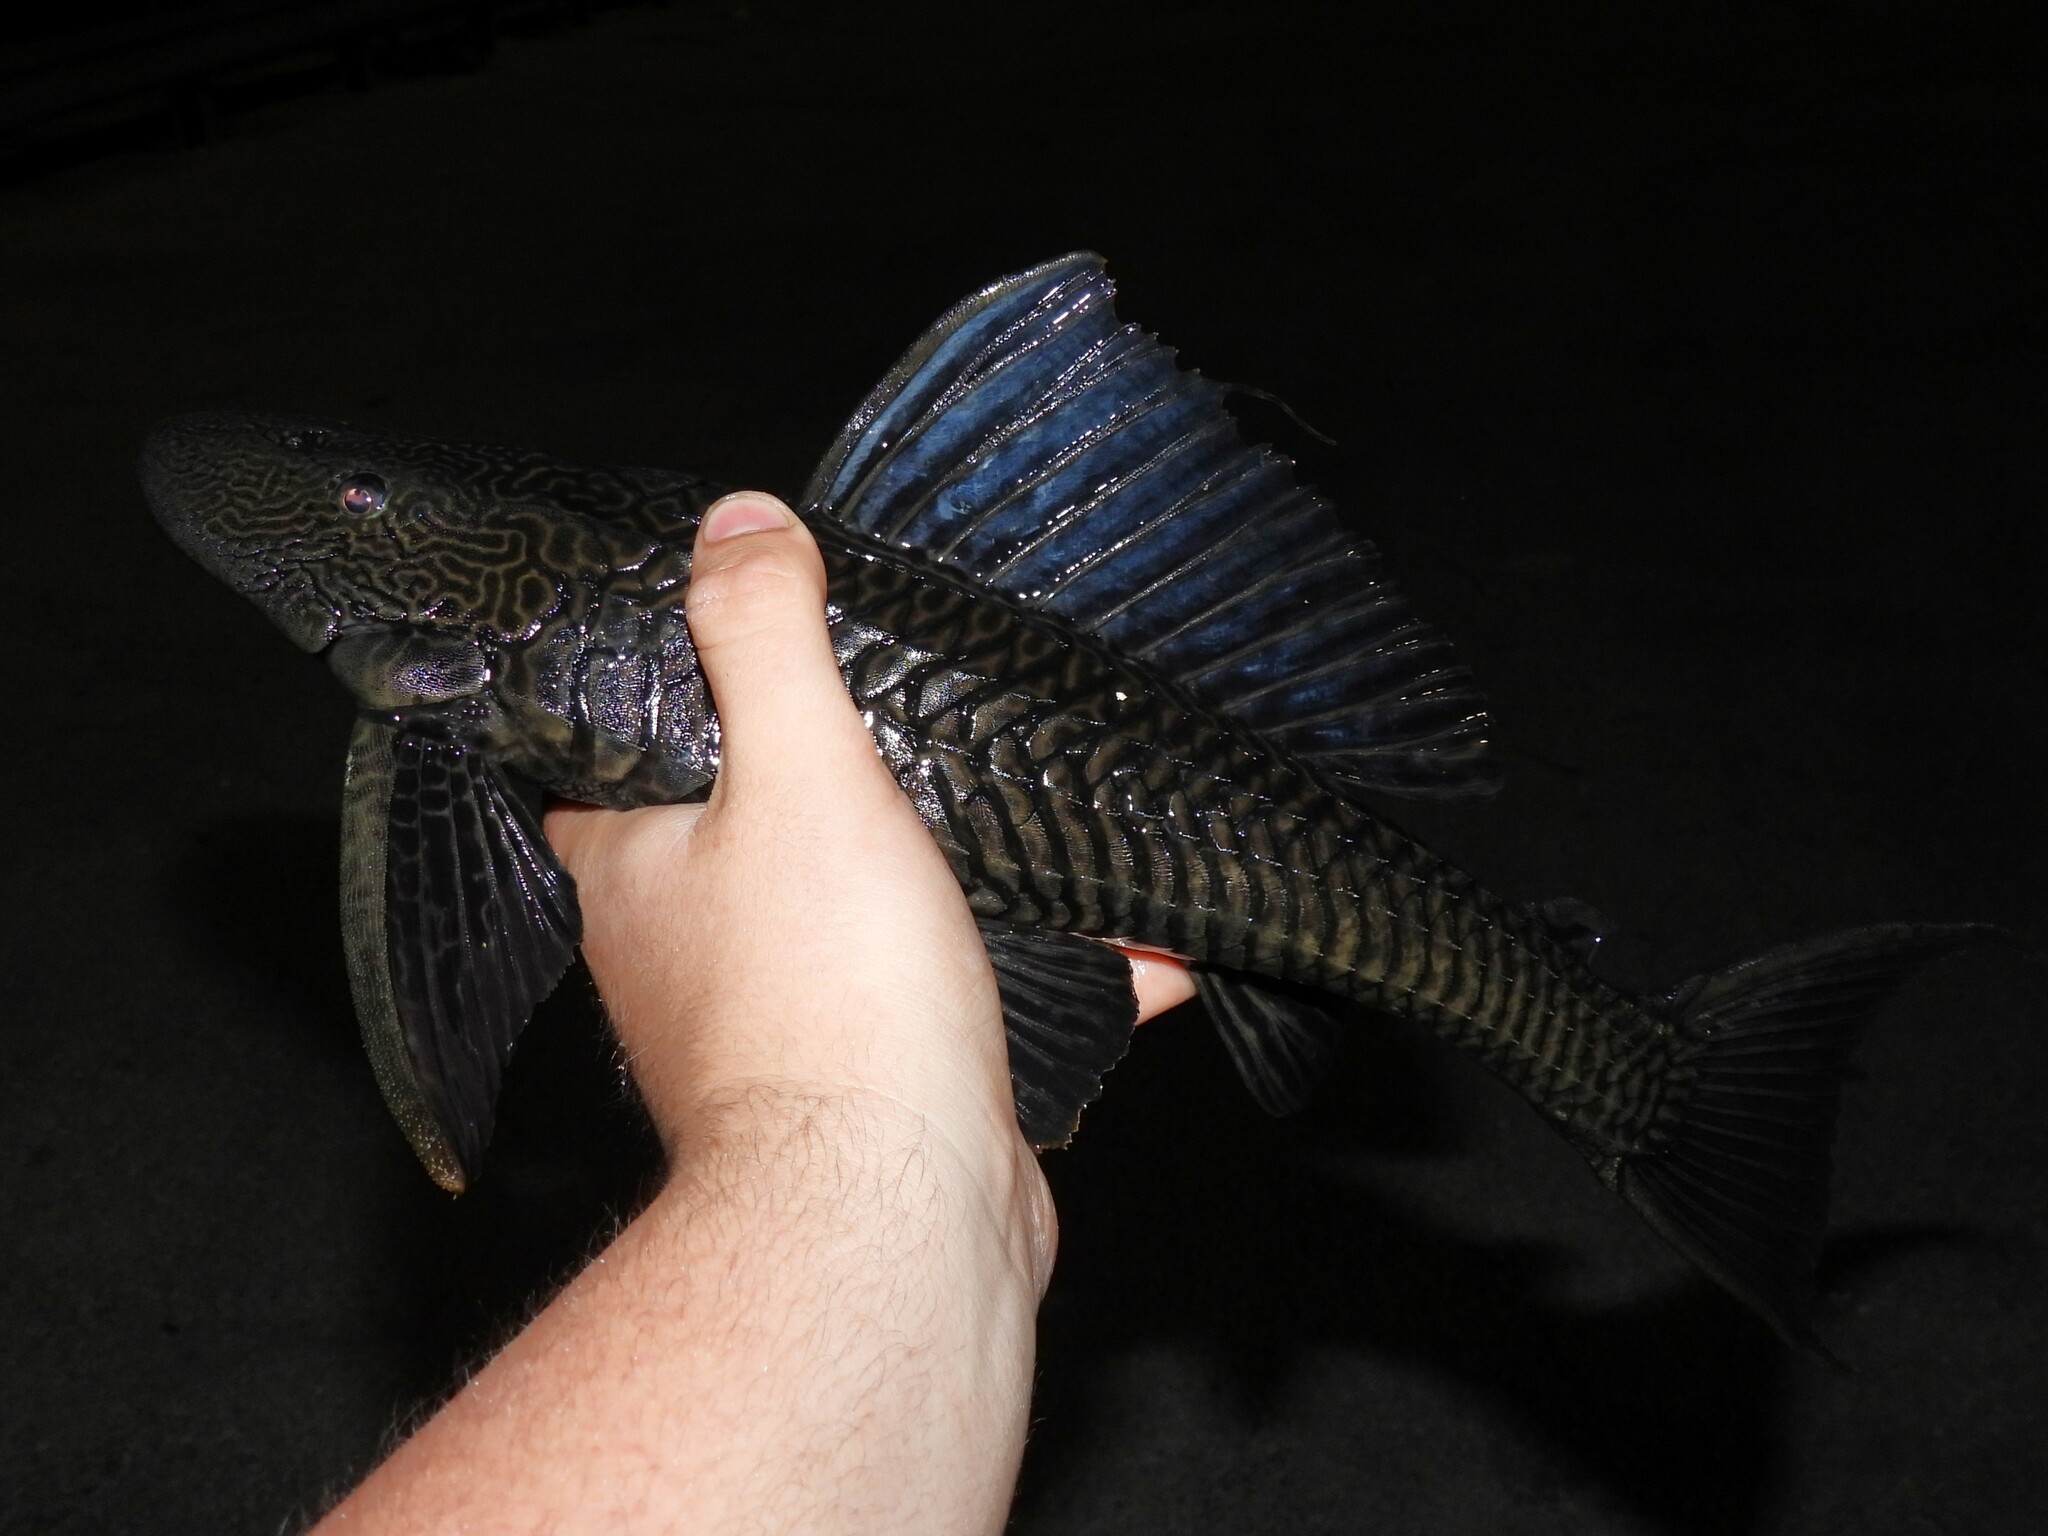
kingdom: Animalia
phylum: Chordata
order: Siluriformes
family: Loricariidae
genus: Pterygoplichthys
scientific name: Pterygoplichthys
